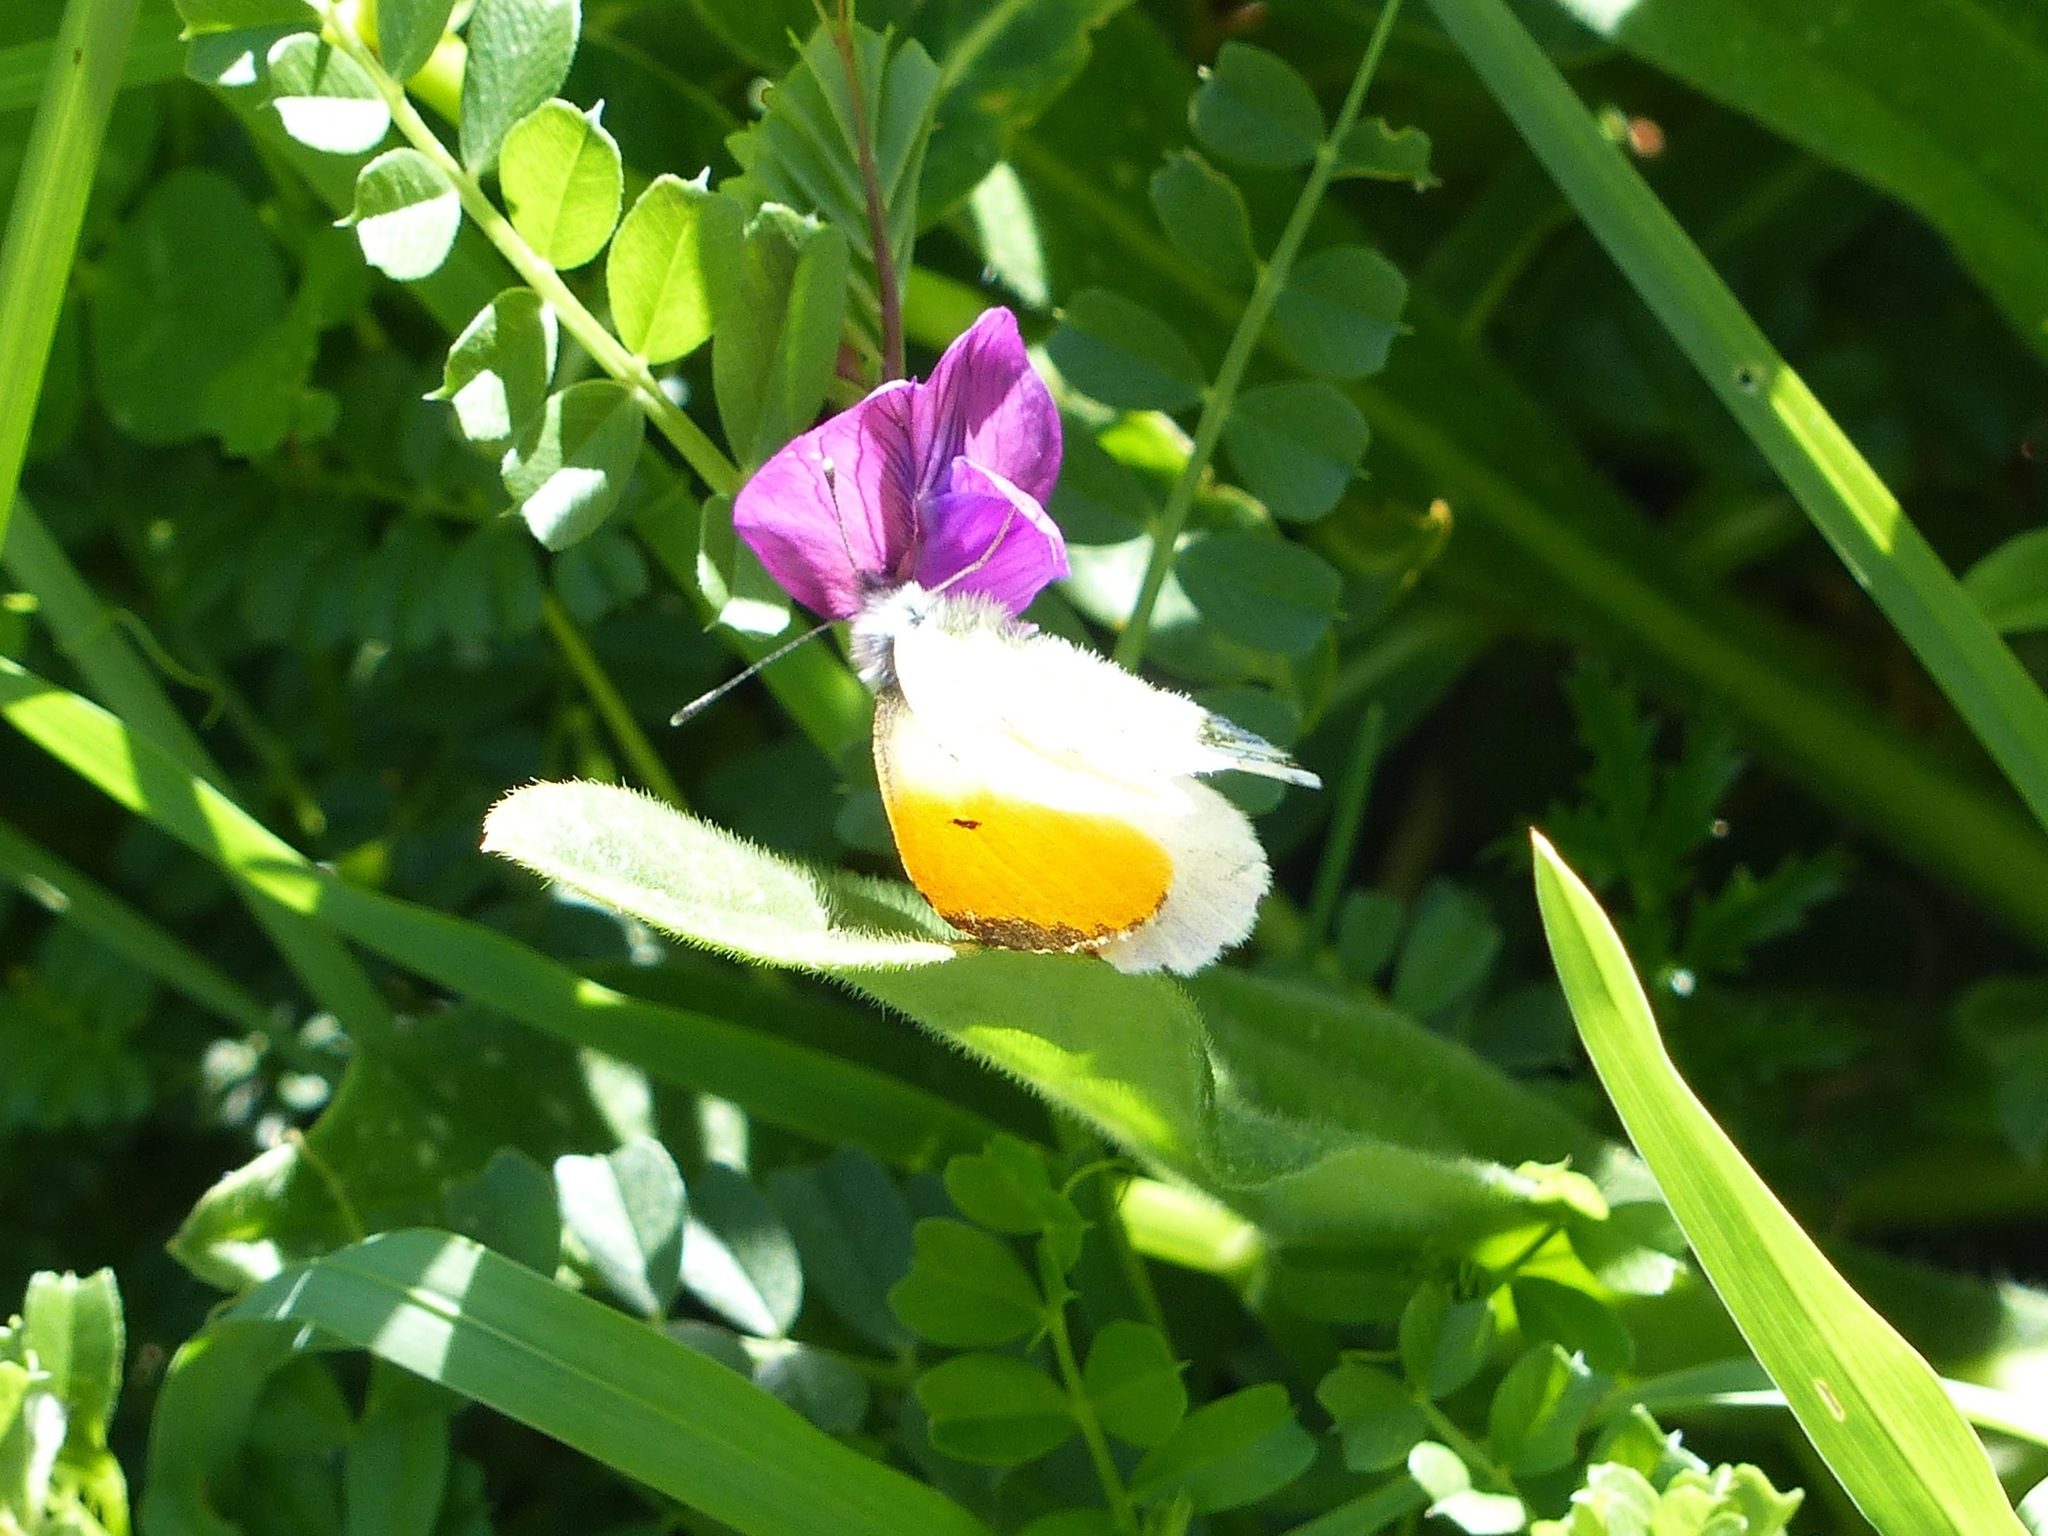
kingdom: Animalia
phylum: Arthropoda
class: Insecta
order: Lepidoptera
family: Pieridae
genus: Anthocharis
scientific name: Anthocharis cardamines
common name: Orange-tip
